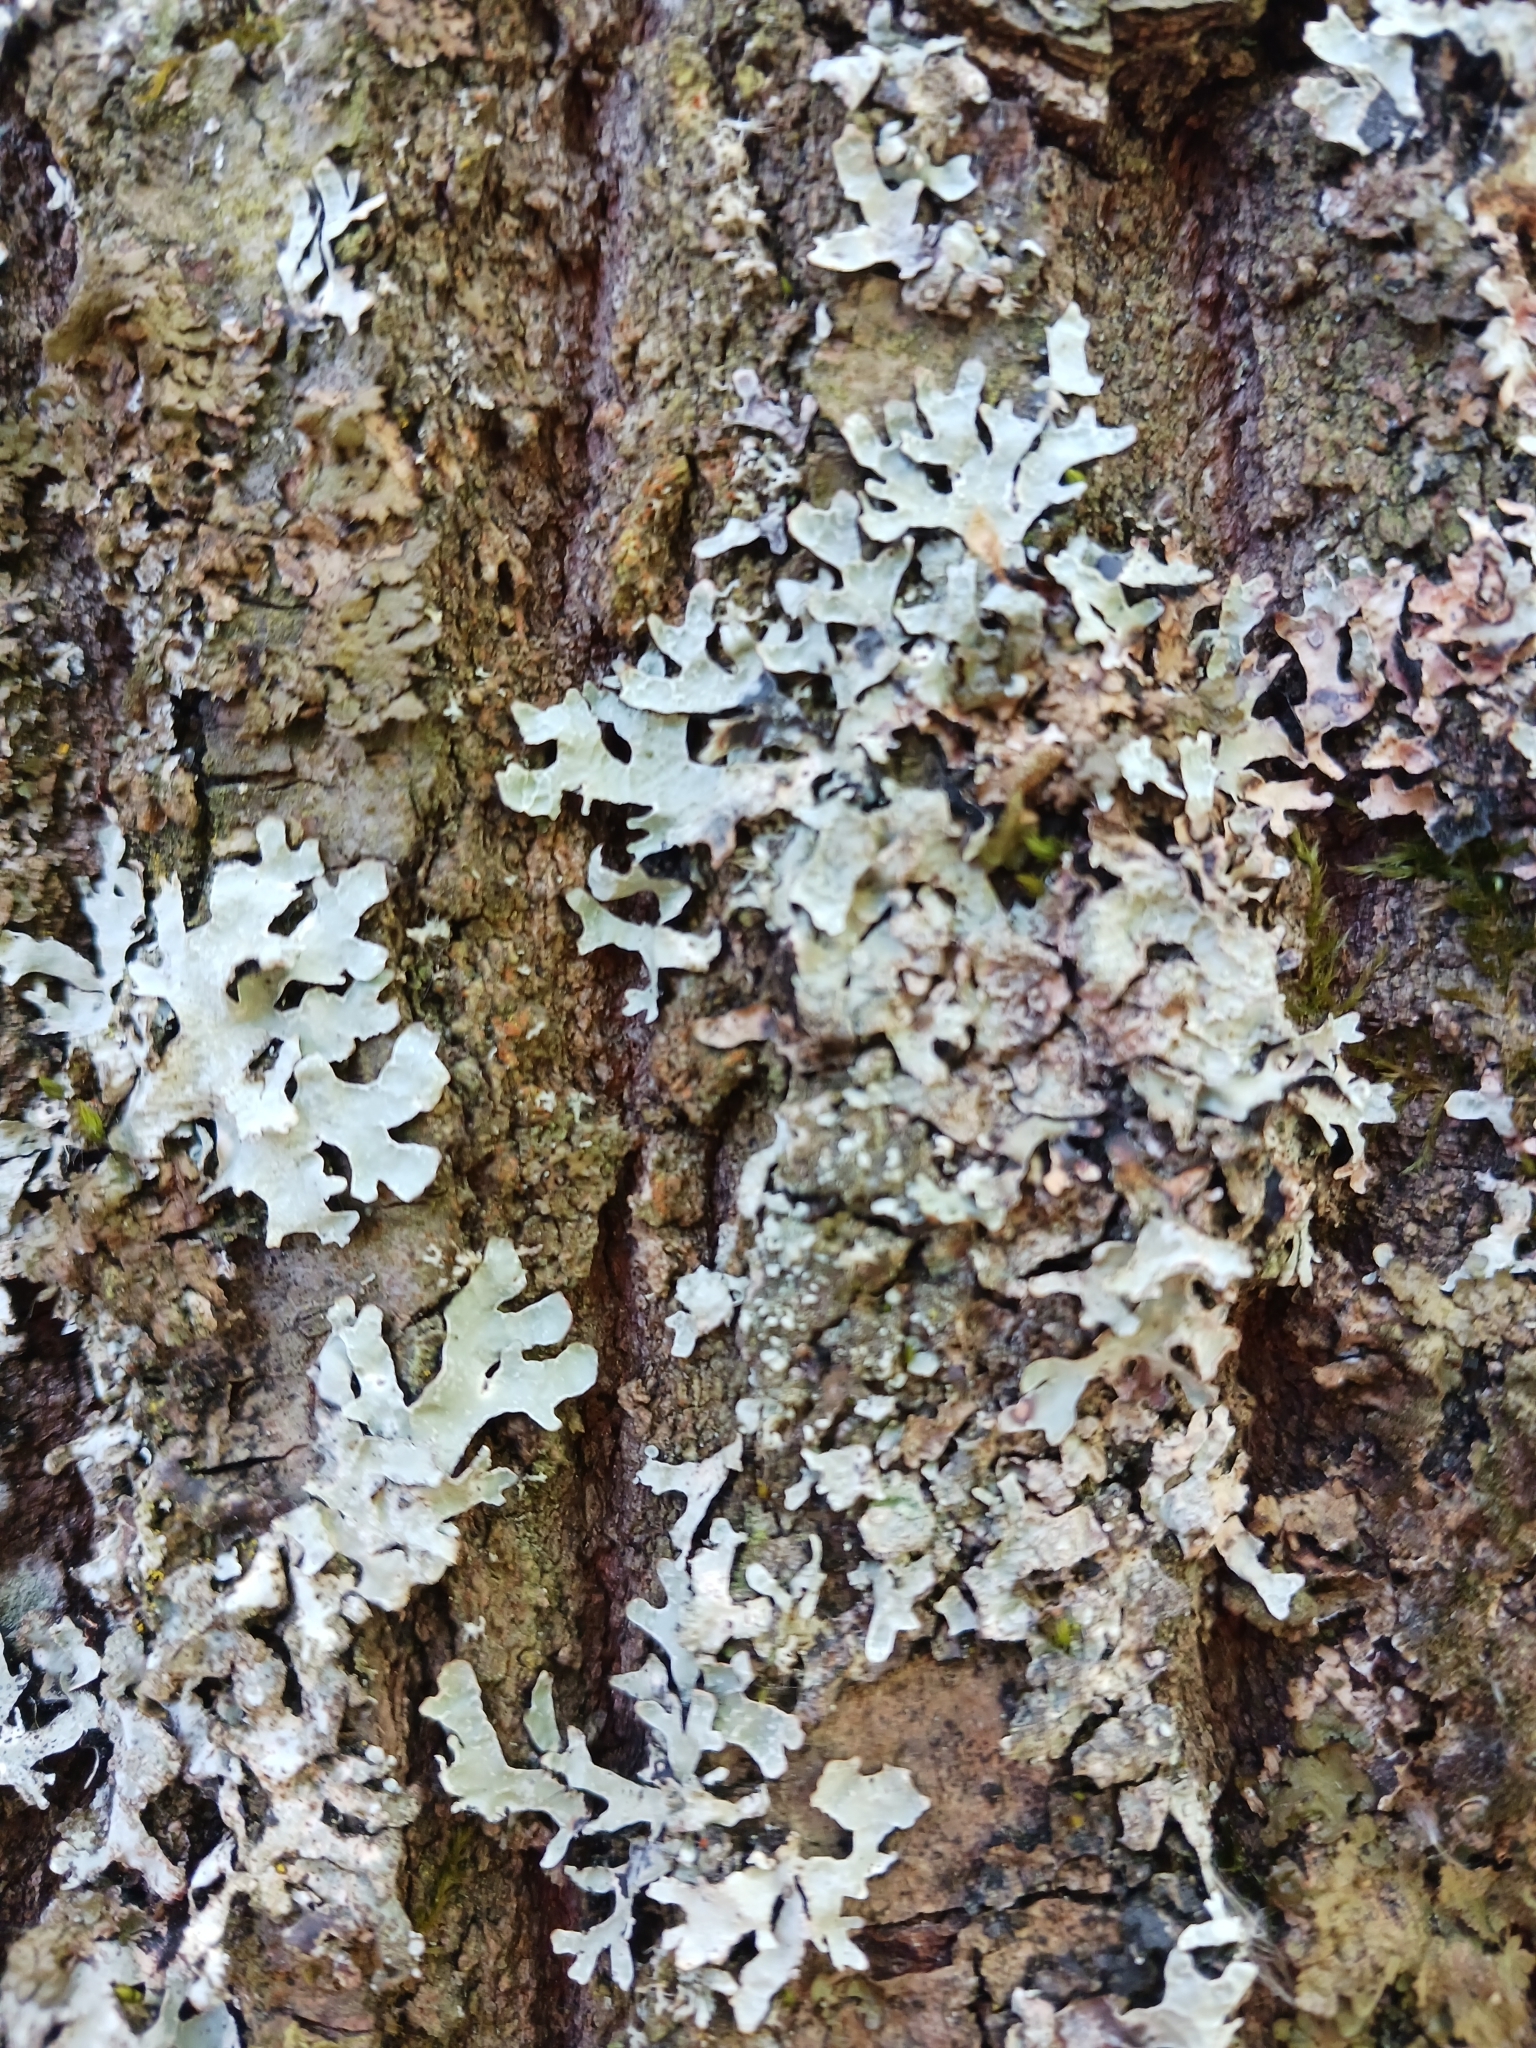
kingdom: Fungi
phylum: Ascomycota
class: Lecanoromycetes
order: Lecanorales
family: Parmeliaceae
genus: Parmelia
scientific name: Parmelia sulcata
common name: Netted shield lichen
